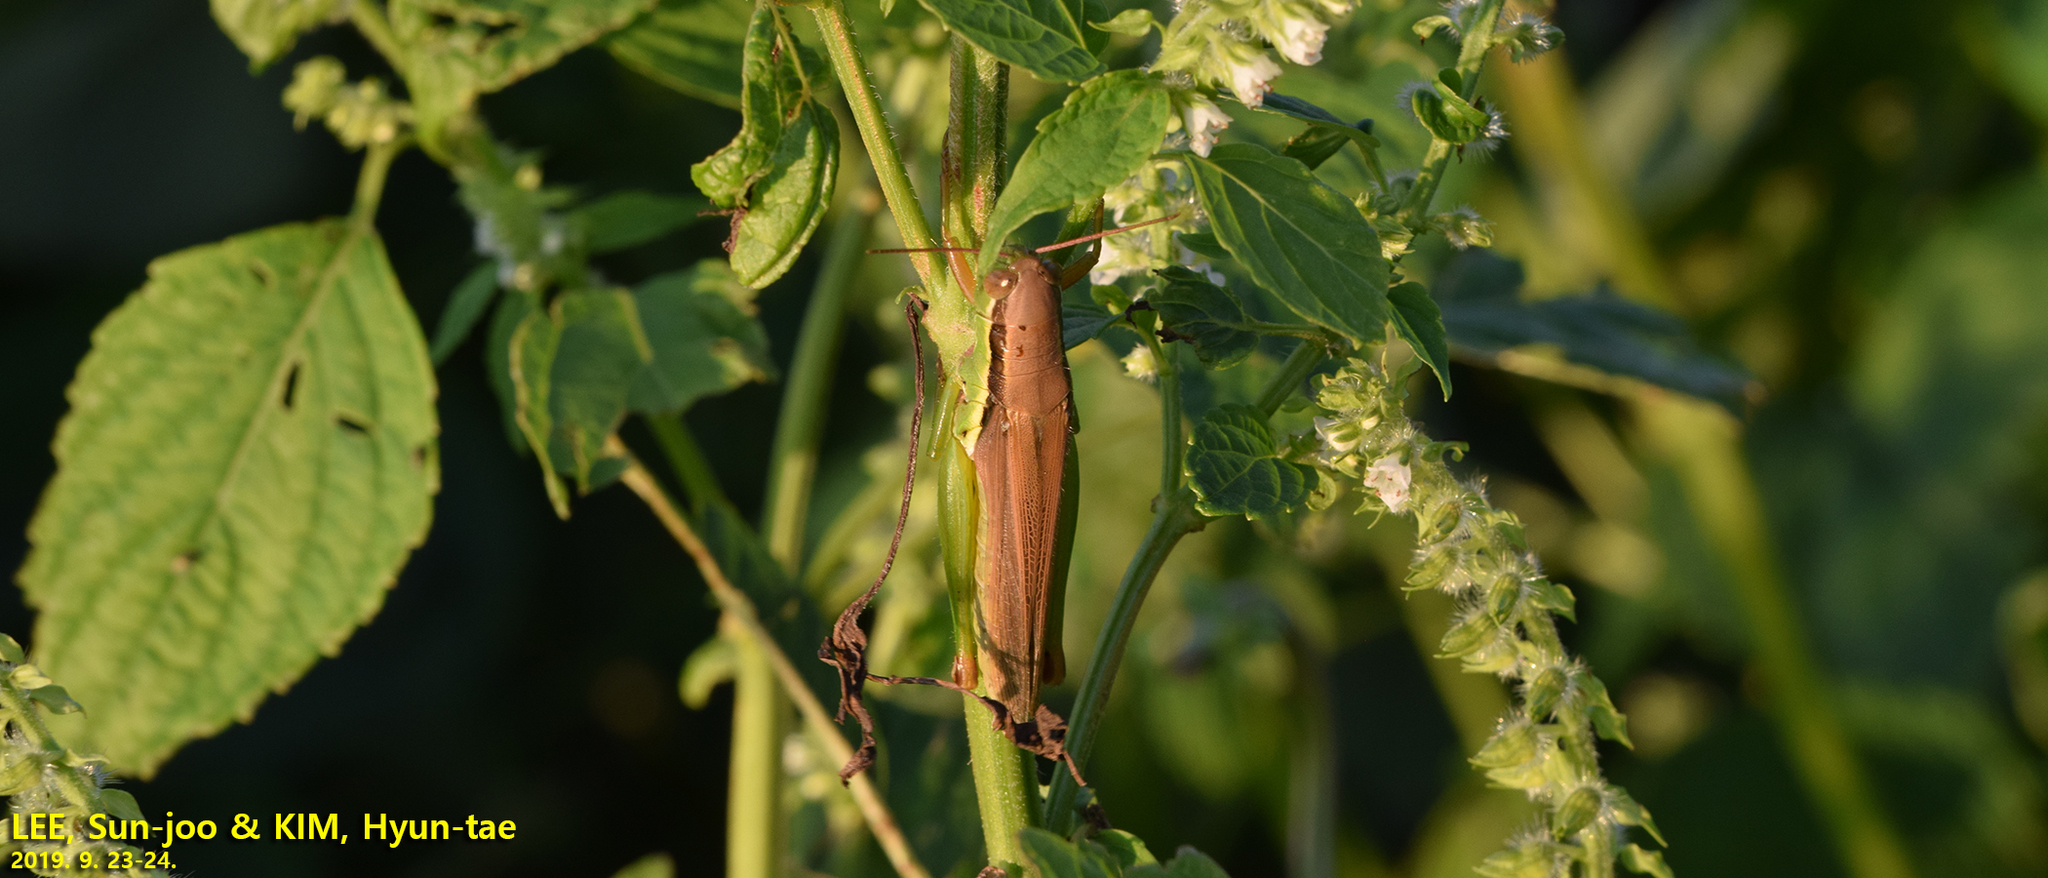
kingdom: Animalia
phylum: Arthropoda
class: Insecta
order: Orthoptera
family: Acrididae
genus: Oxya
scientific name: Oxya sinuosa
